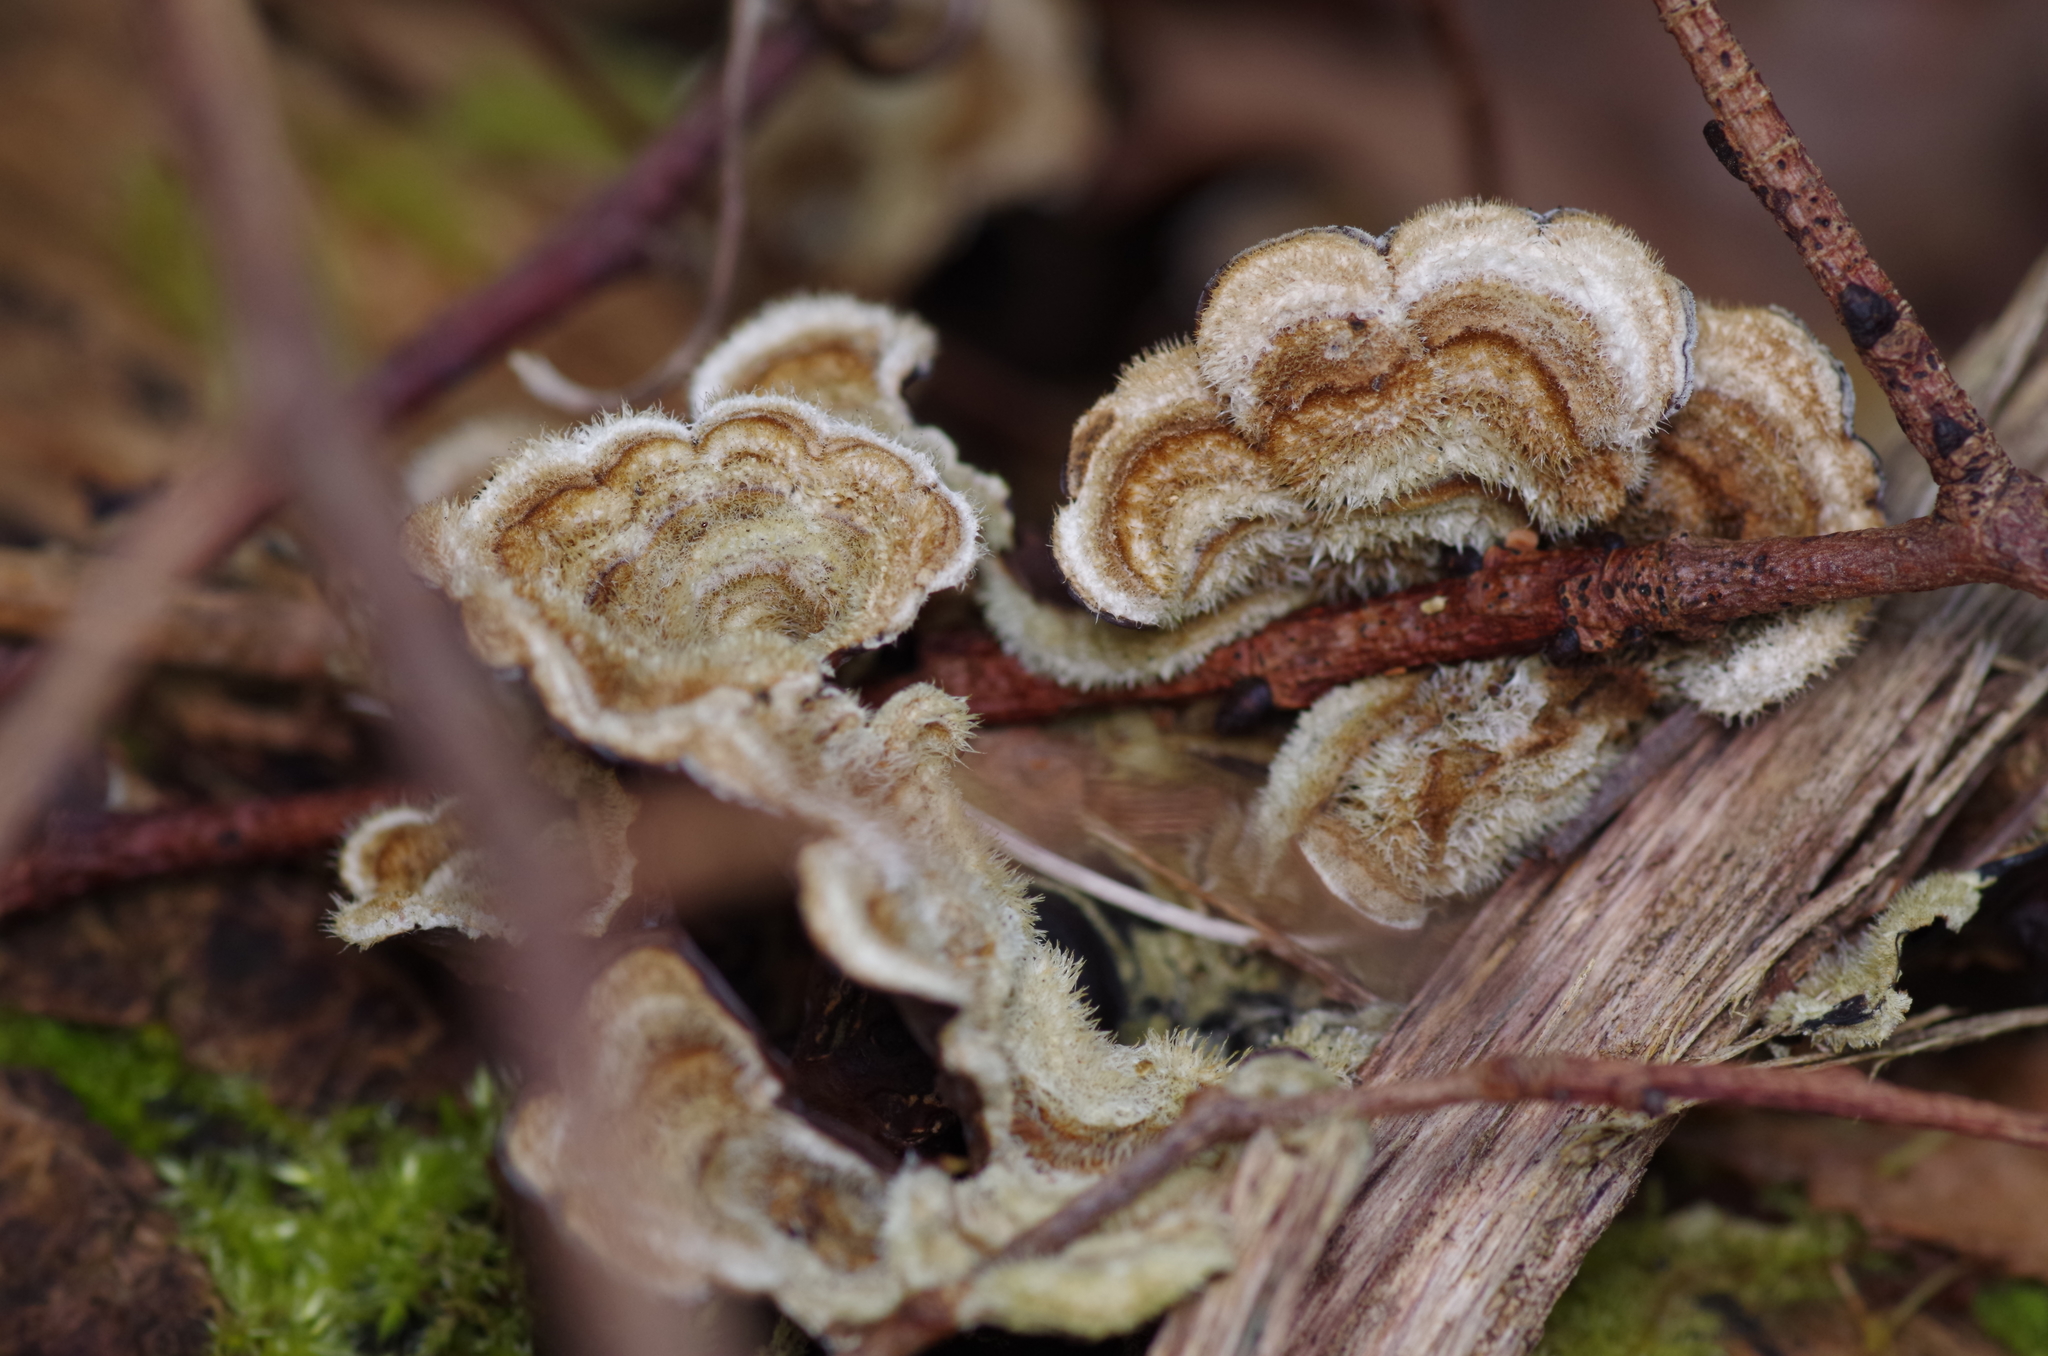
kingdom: Fungi
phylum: Basidiomycota
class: Agaricomycetes
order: Auriculariales
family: Auriculariaceae
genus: Auricularia
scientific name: Auricularia mesenterica
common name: Tripe fungus
